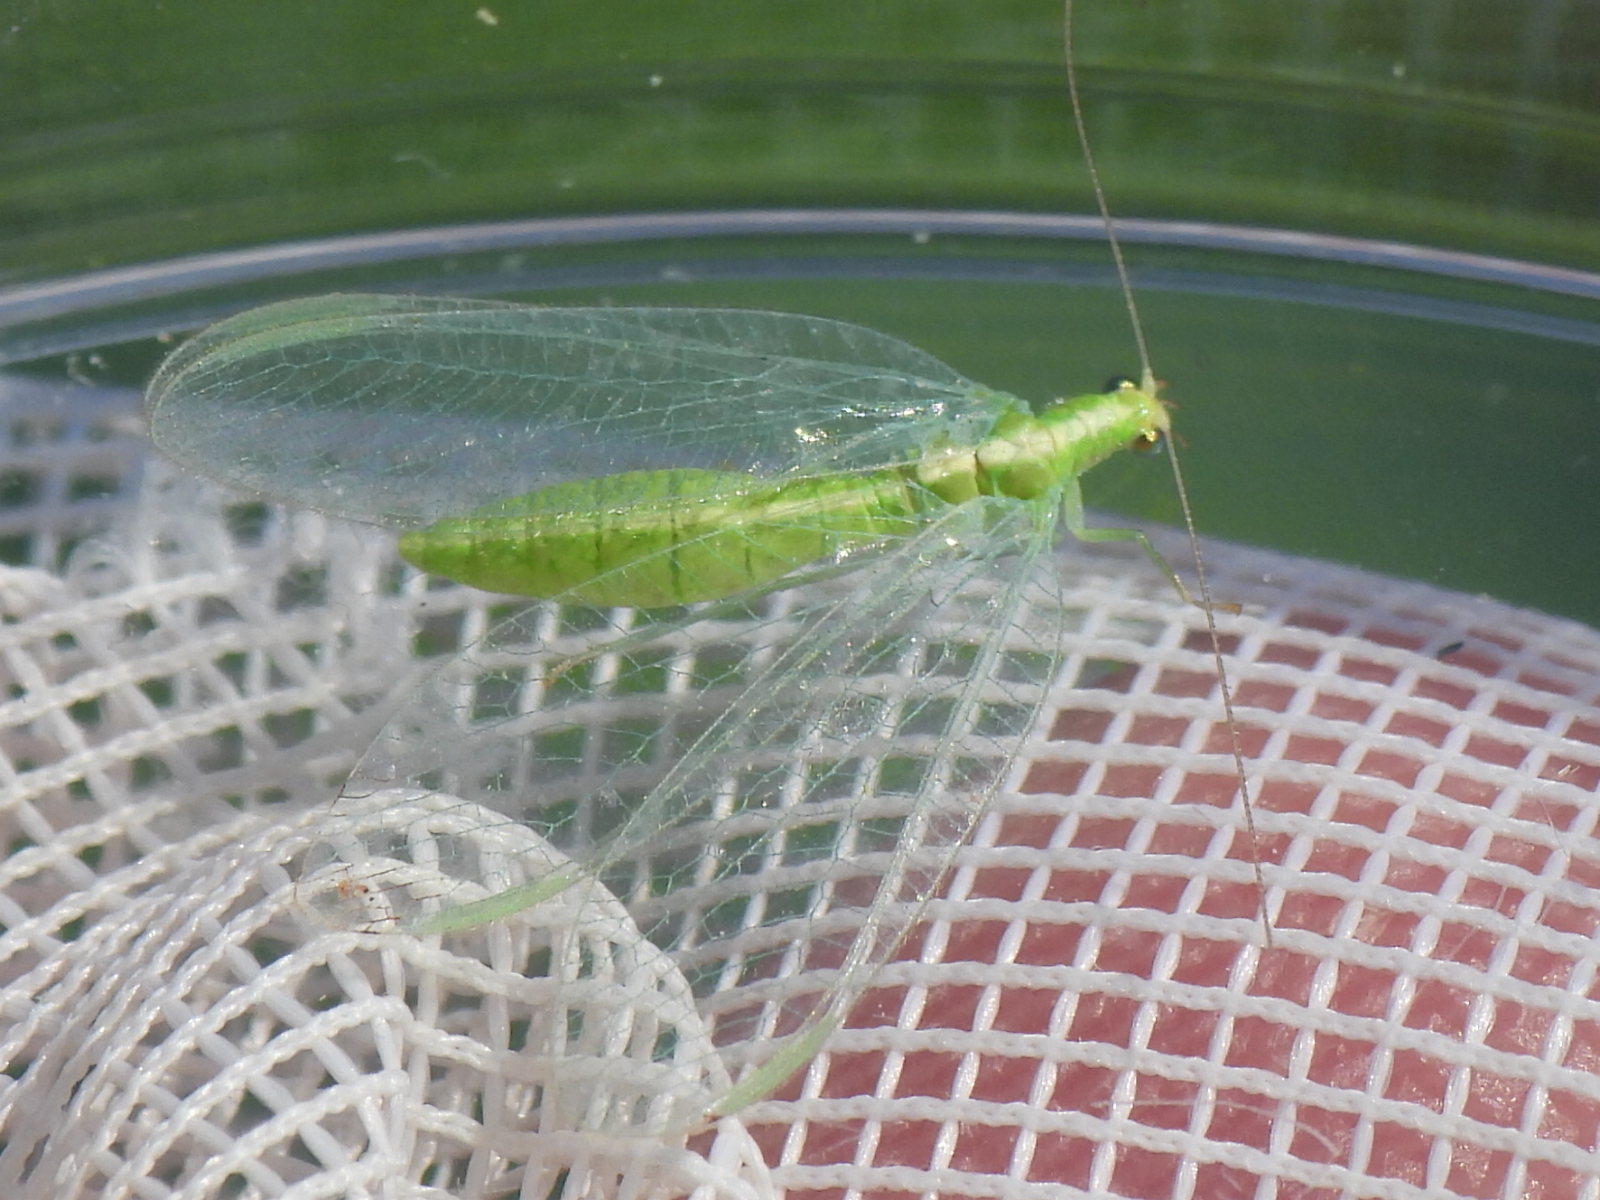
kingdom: Animalia
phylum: Arthropoda
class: Insecta
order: Neuroptera
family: Chrysopidae
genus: Chrysoperla
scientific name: Chrysoperla rufilabris
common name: Red-lipped green lacewing
